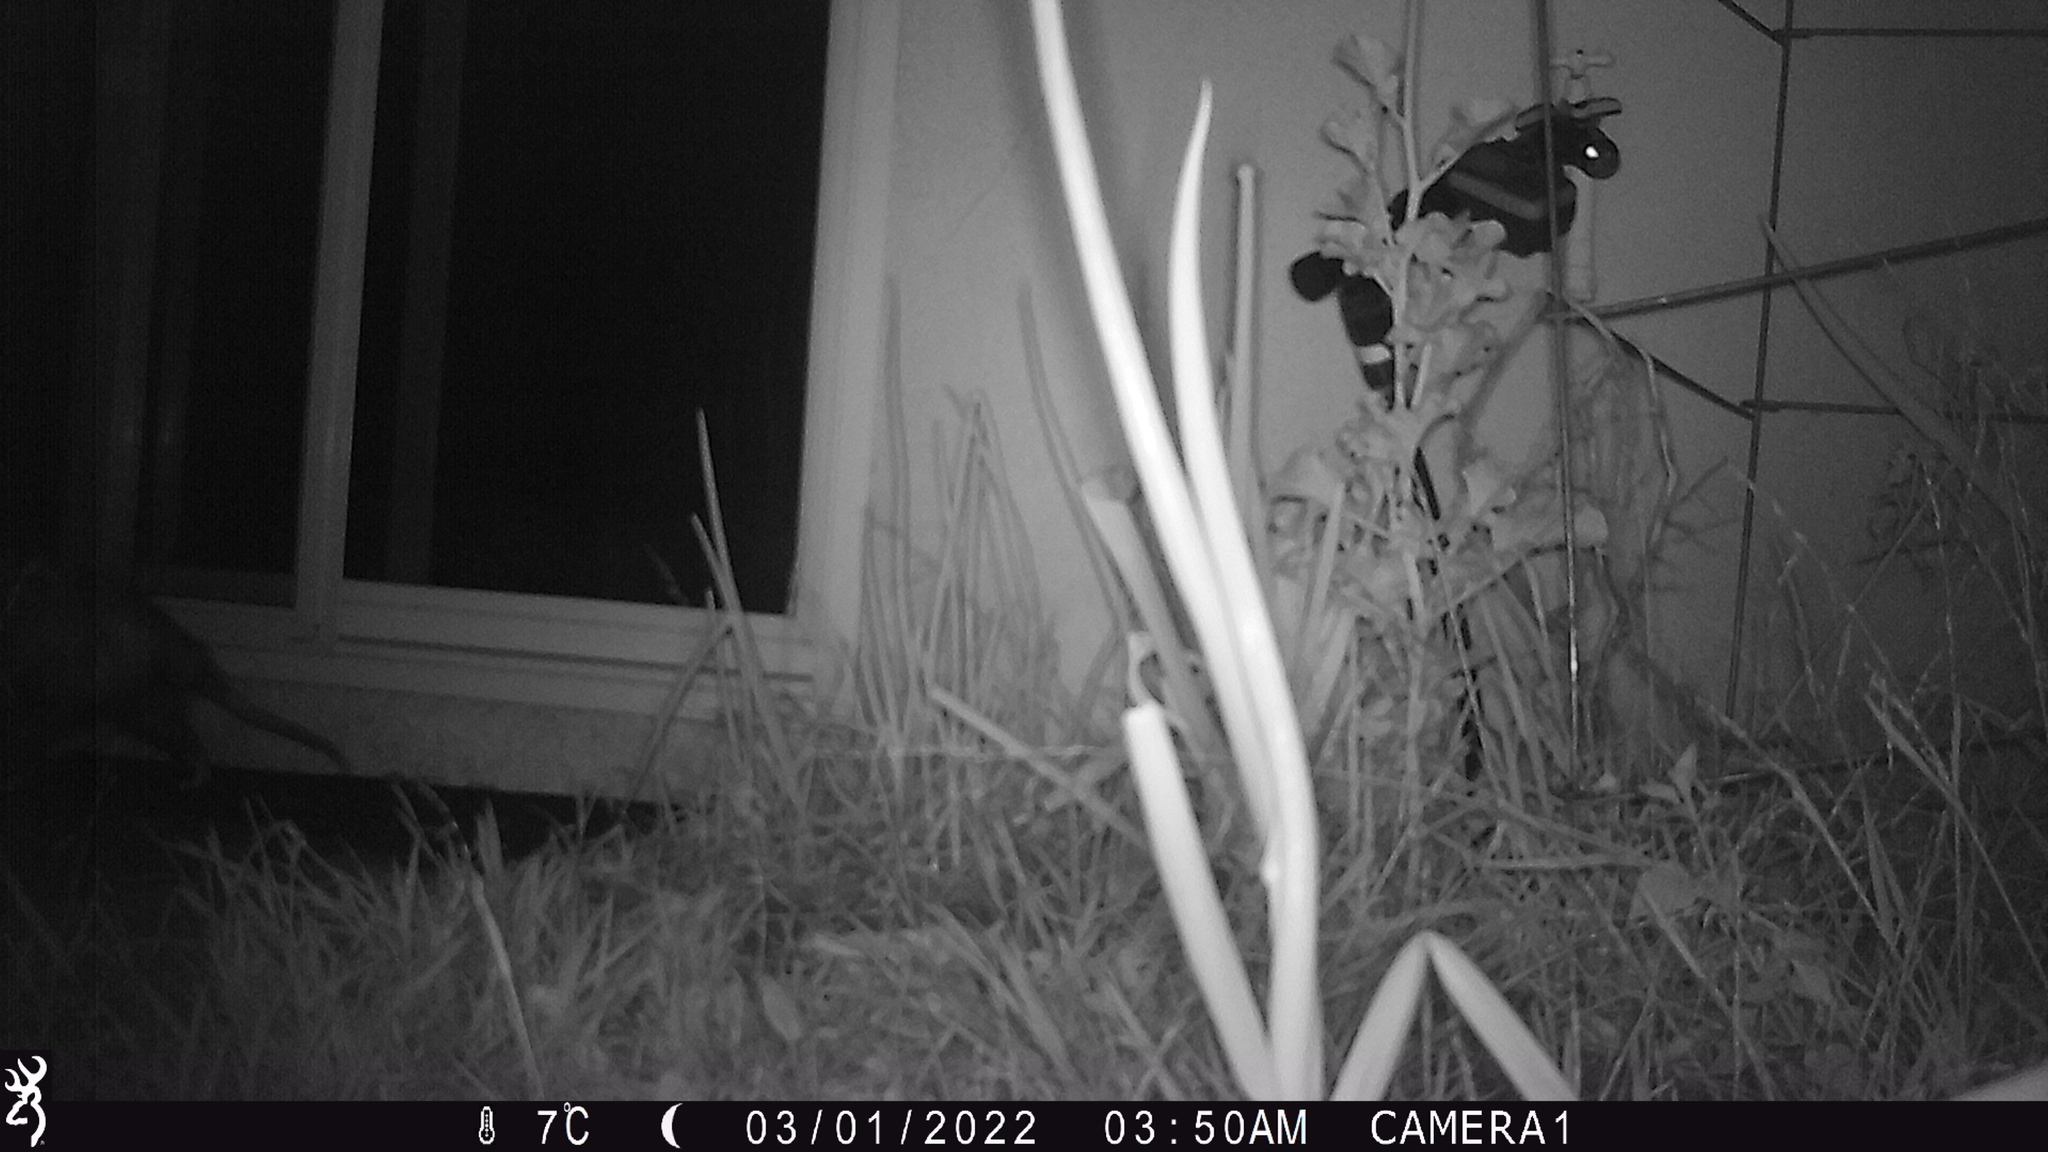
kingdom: Animalia
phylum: Chordata
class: Mammalia
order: Didelphimorphia
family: Didelphidae
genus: Didelphis
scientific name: Didelphis virginiana
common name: Virginia opossum
